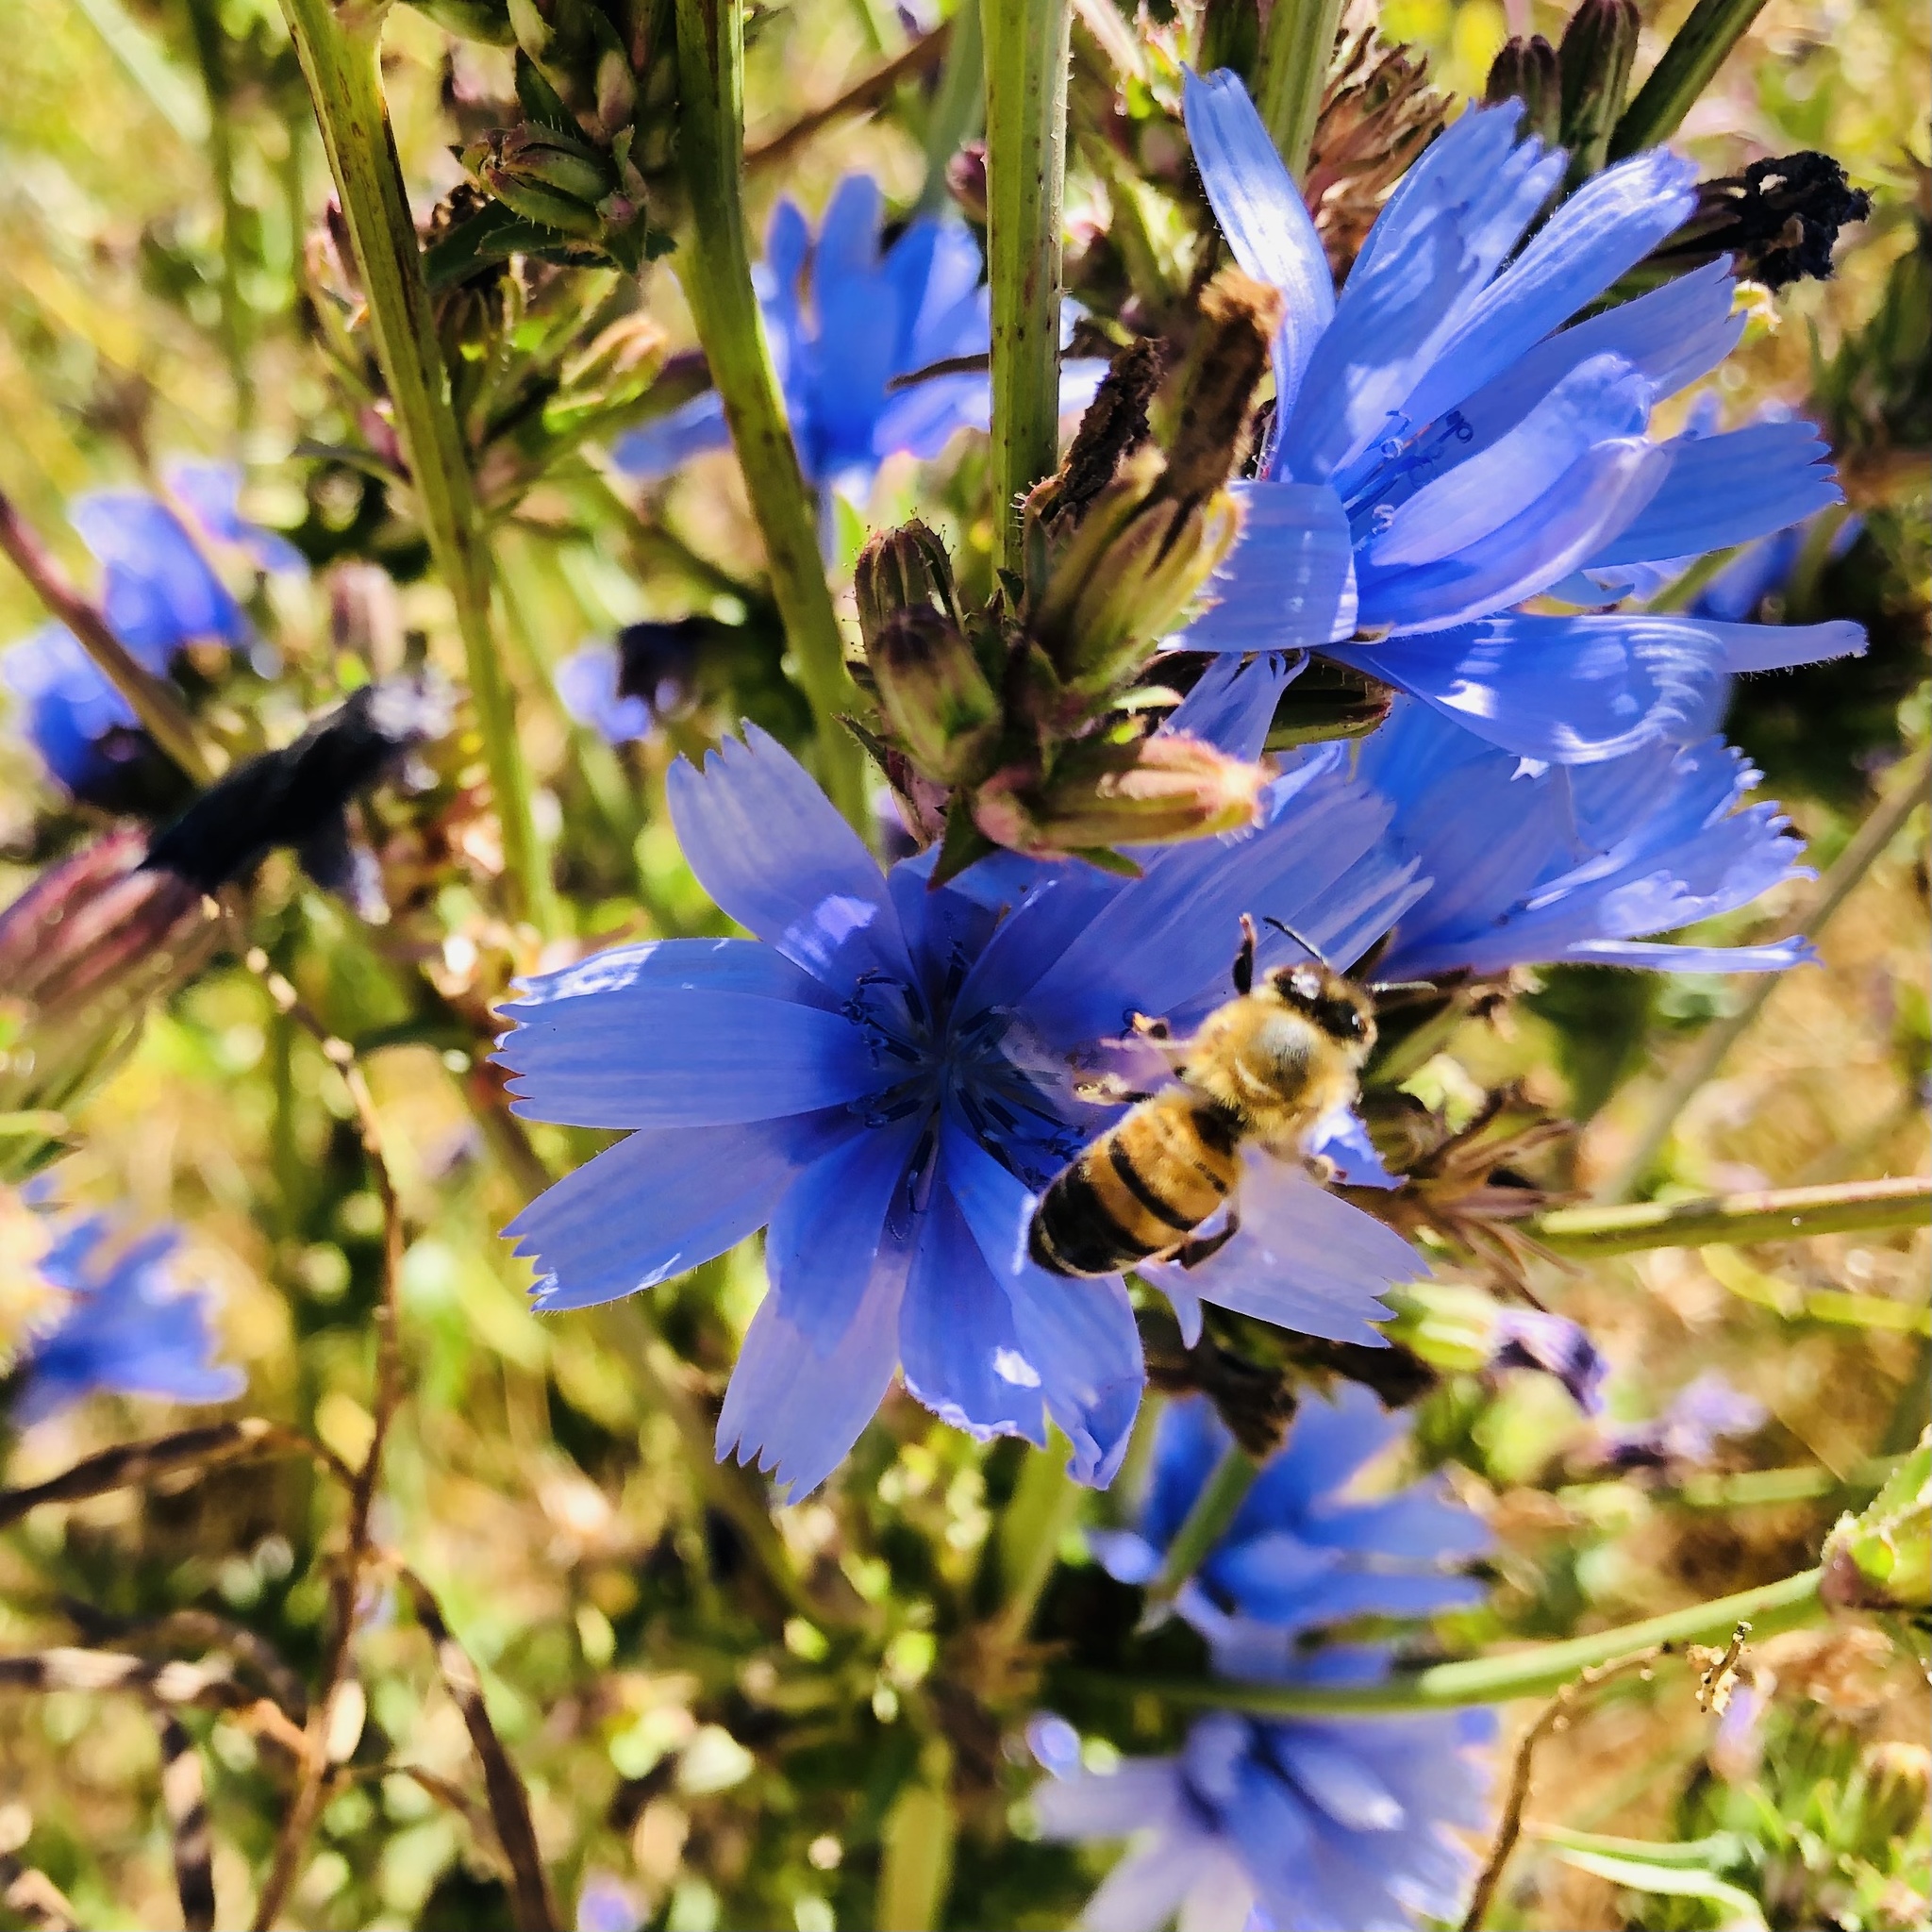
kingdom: Animalia
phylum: Arthropoda
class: Insecta
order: Hymenoptera
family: Apidae
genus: Apis
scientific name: Apis mellifera
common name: Honey bee
